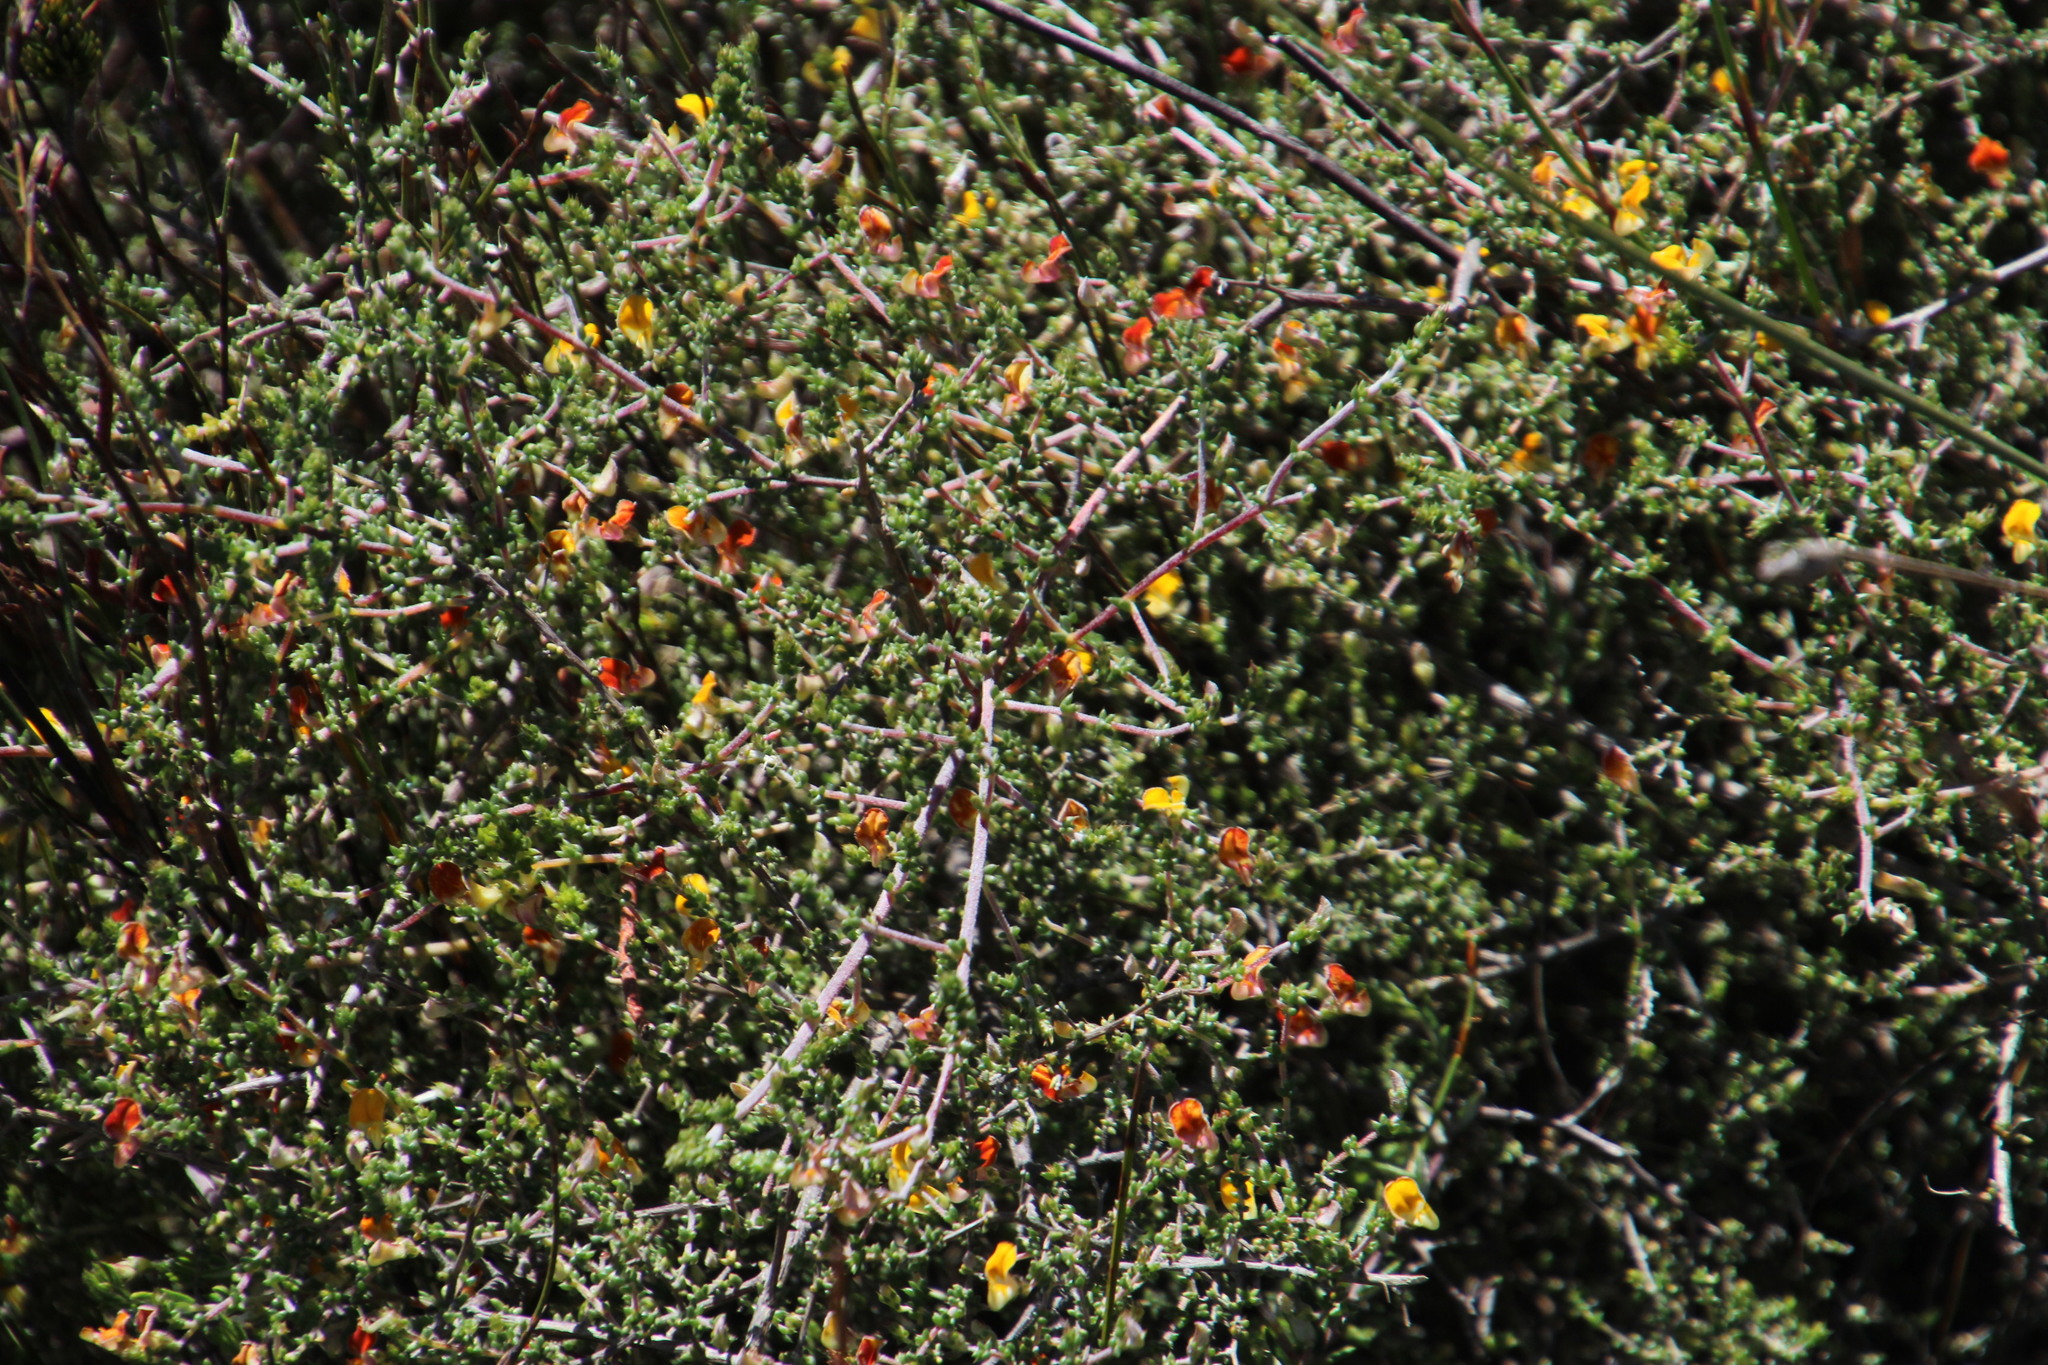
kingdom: Plantae
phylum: Tracheophyta
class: Magnoliopsida
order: Fabales
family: Fabaceae
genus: Aspalathus
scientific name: Aspalathus leptocoma
